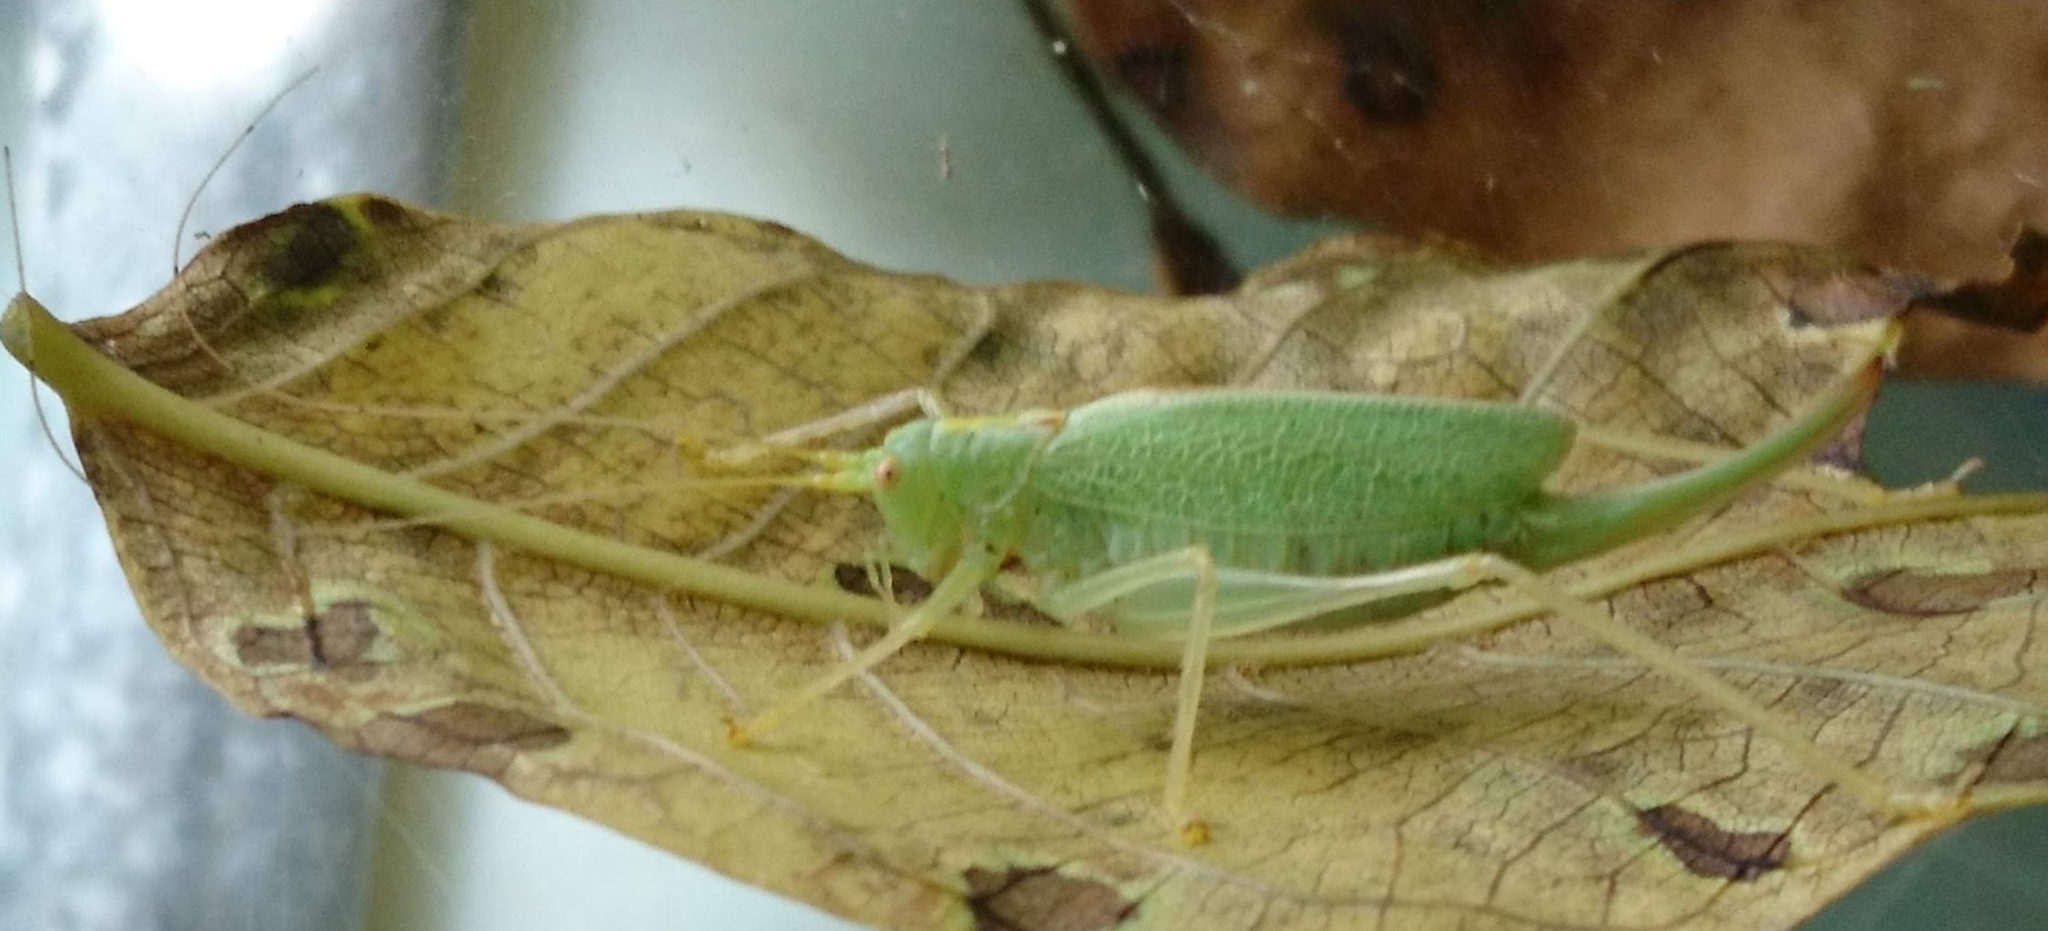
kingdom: Animalia
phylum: Arthropoda
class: Insecta
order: Orthoptera
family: Tettigoniidae
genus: Meconema
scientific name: Meconema thalassinum
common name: Oak bush-cricket
